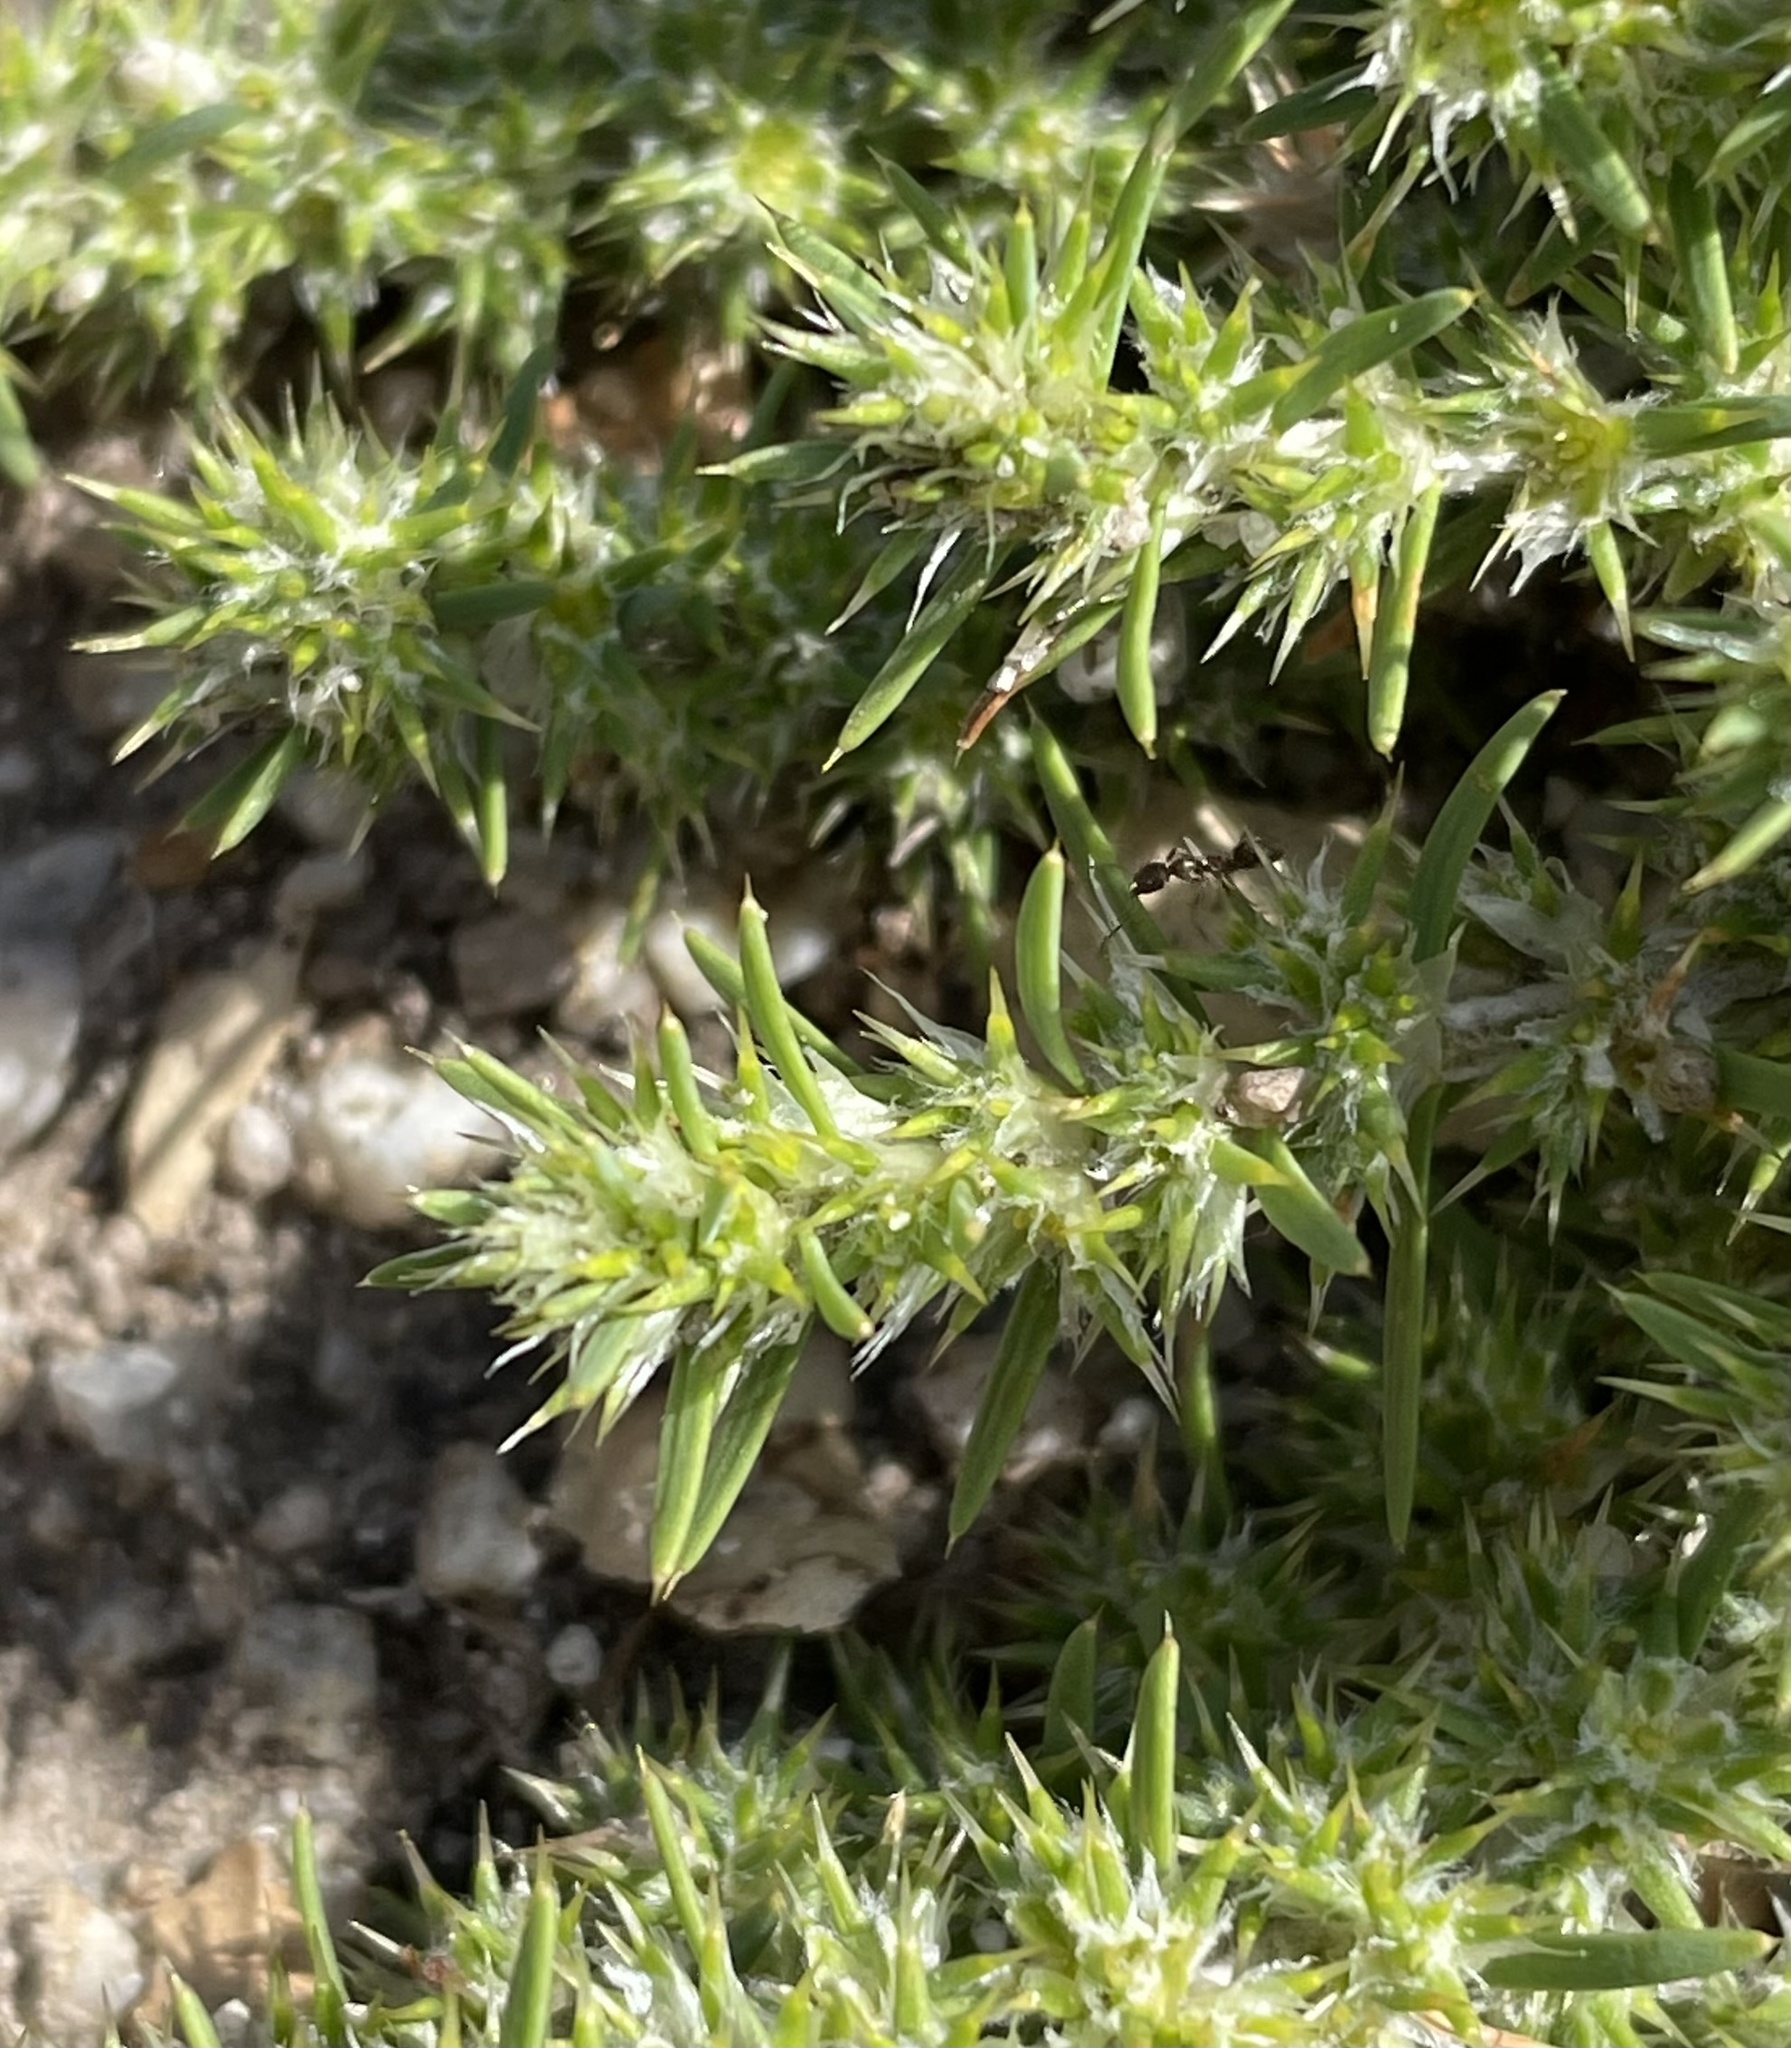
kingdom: Plantae
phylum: Tracheophyta
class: Magnoliopsida
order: Caryophyllales
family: Caryophyllaceae
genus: Cardionema
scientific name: Cardionema ramosissima
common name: Sandcarpet
